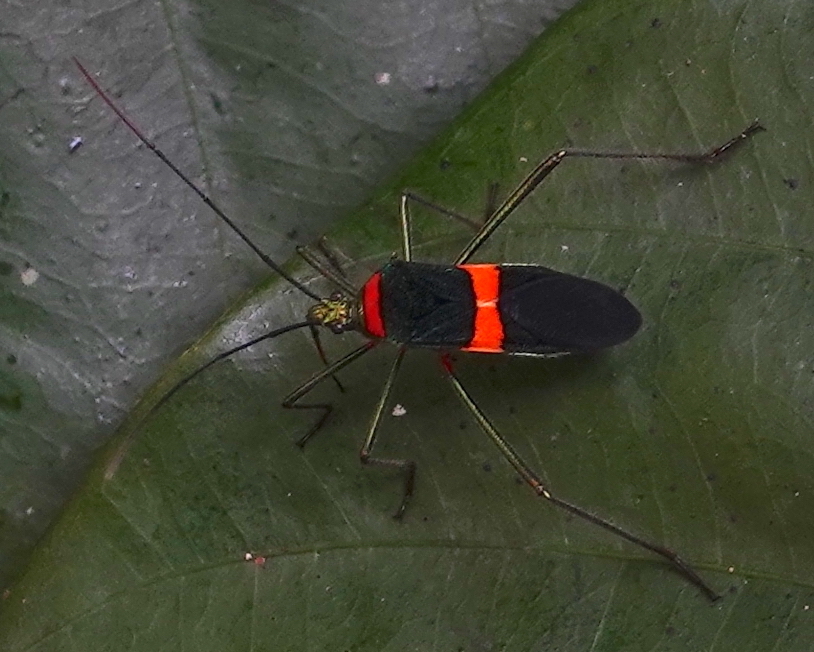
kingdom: Animalia
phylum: Arthropoda
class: Insecta
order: Hemiptera
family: Coreidae
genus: Phthiarella
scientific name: Phthiarella decorata
